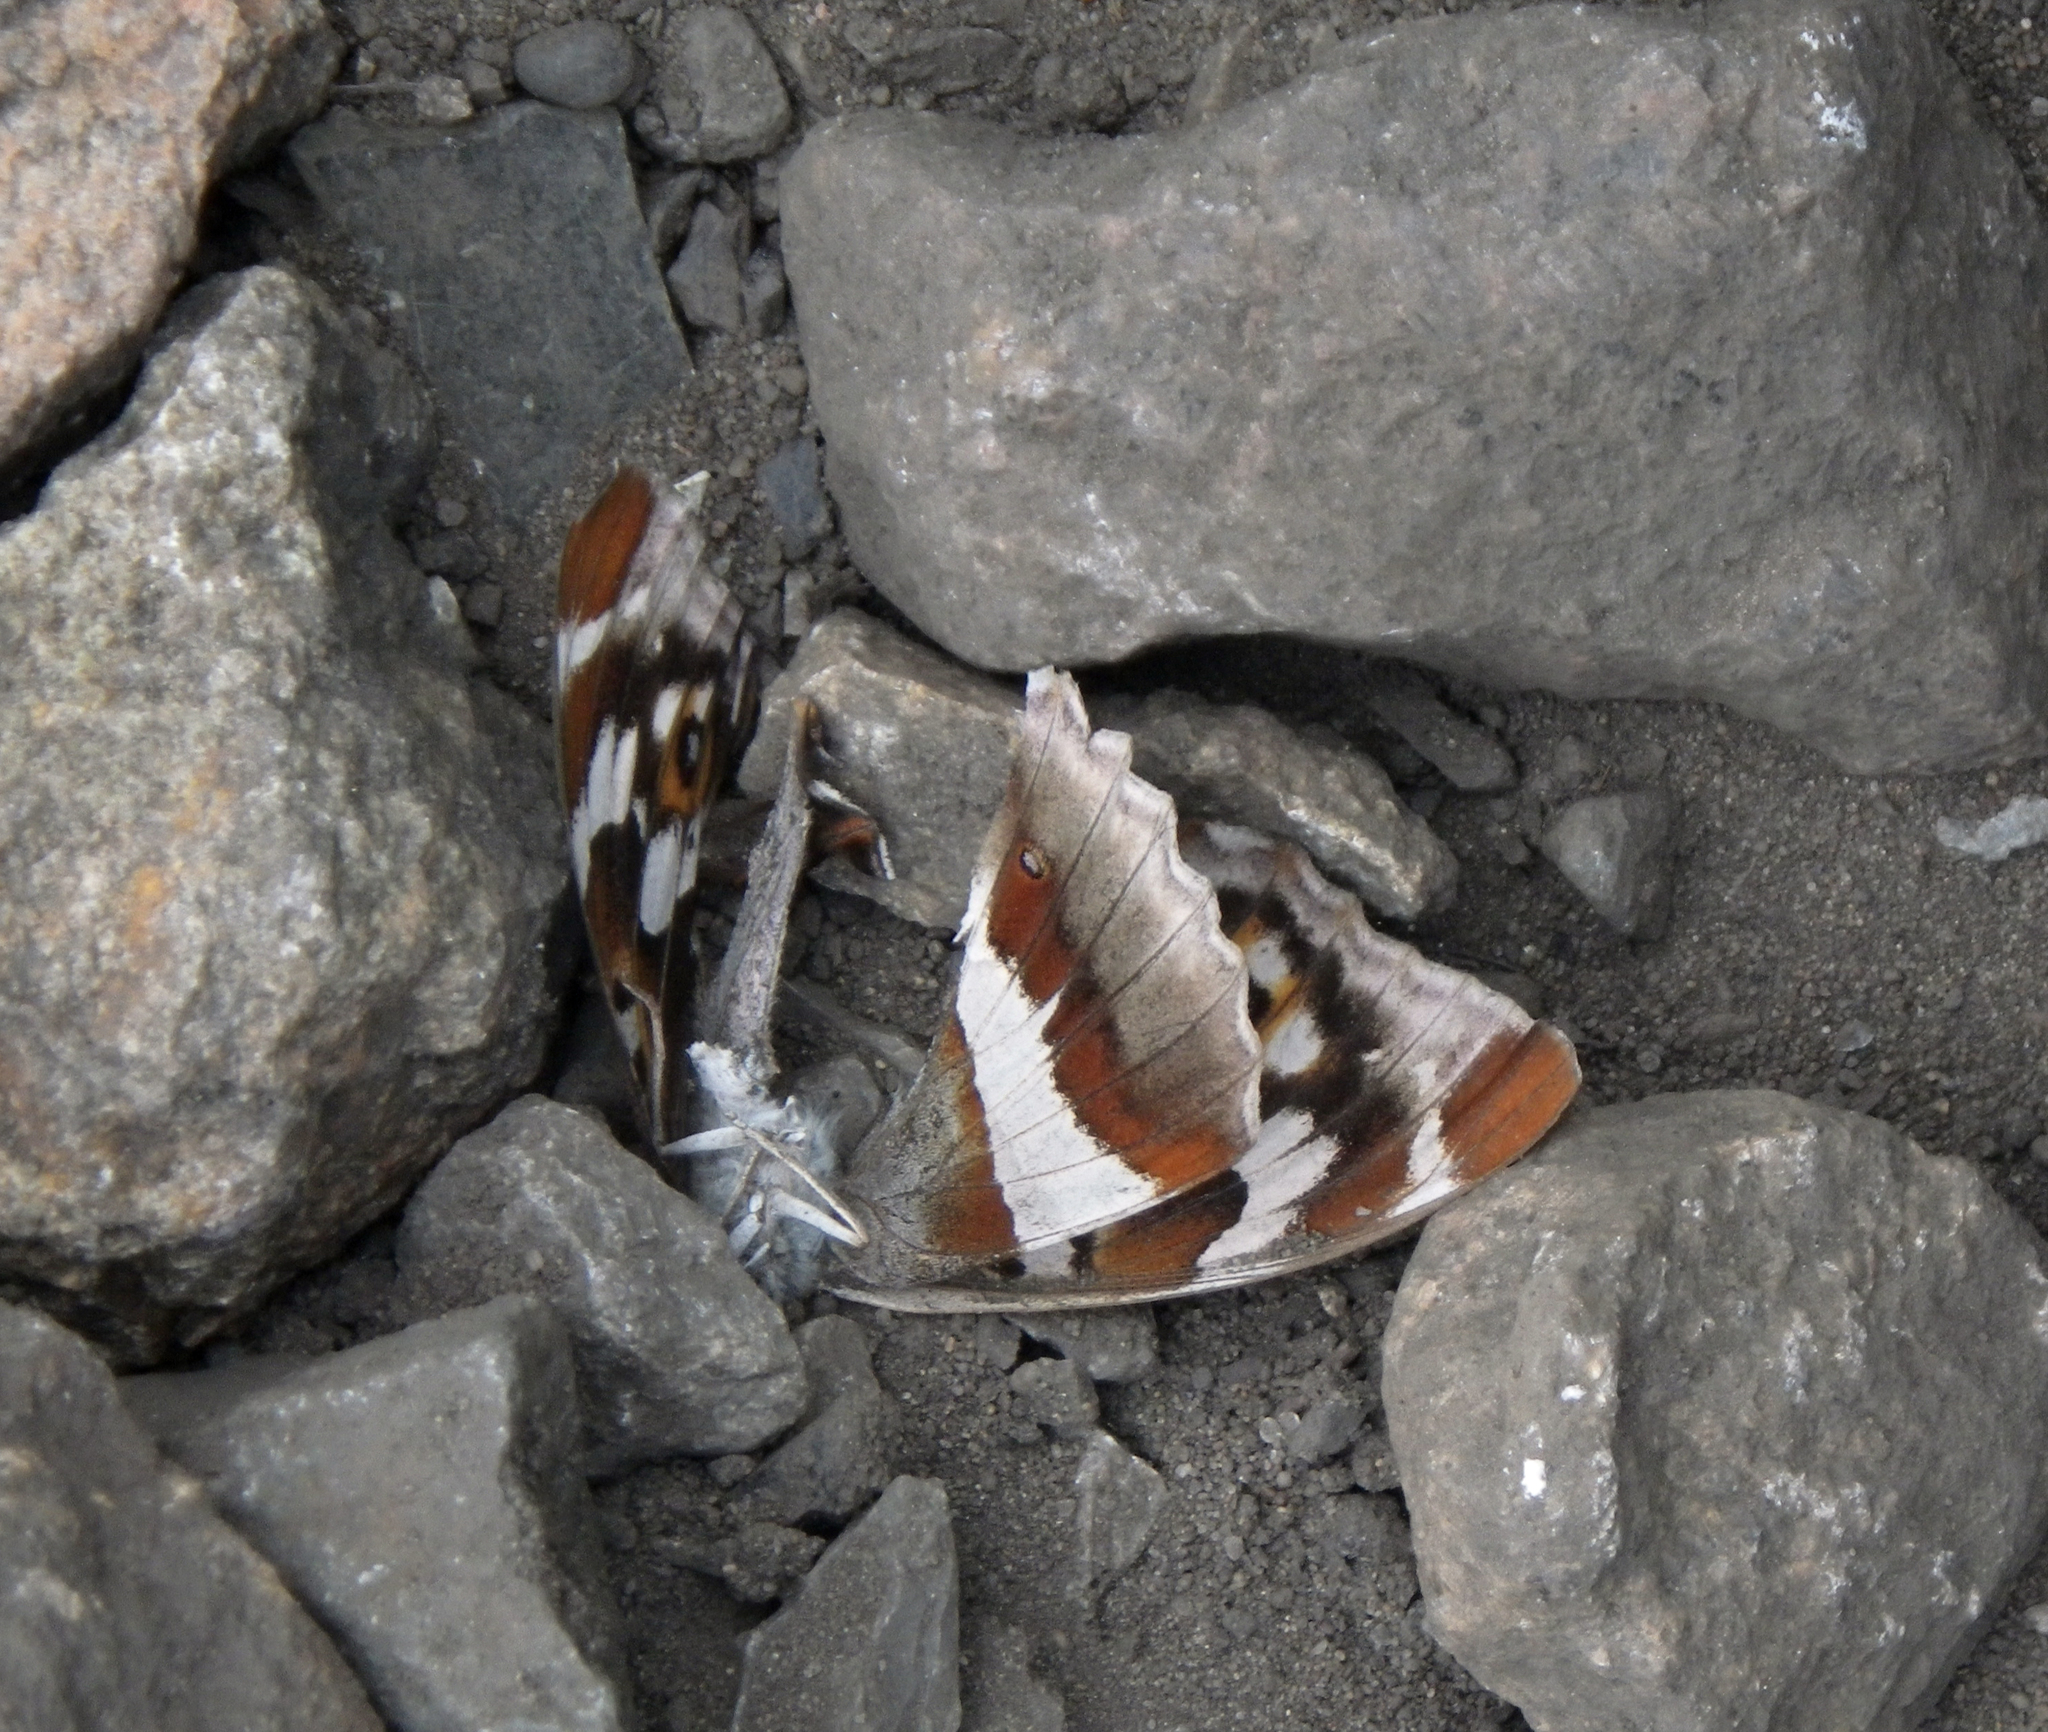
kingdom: Animalia
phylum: Arthropoda
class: Insecta
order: Lepidoptera
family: Nymphalidae
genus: Apatura
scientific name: Apatura iris
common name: Purple emperor
